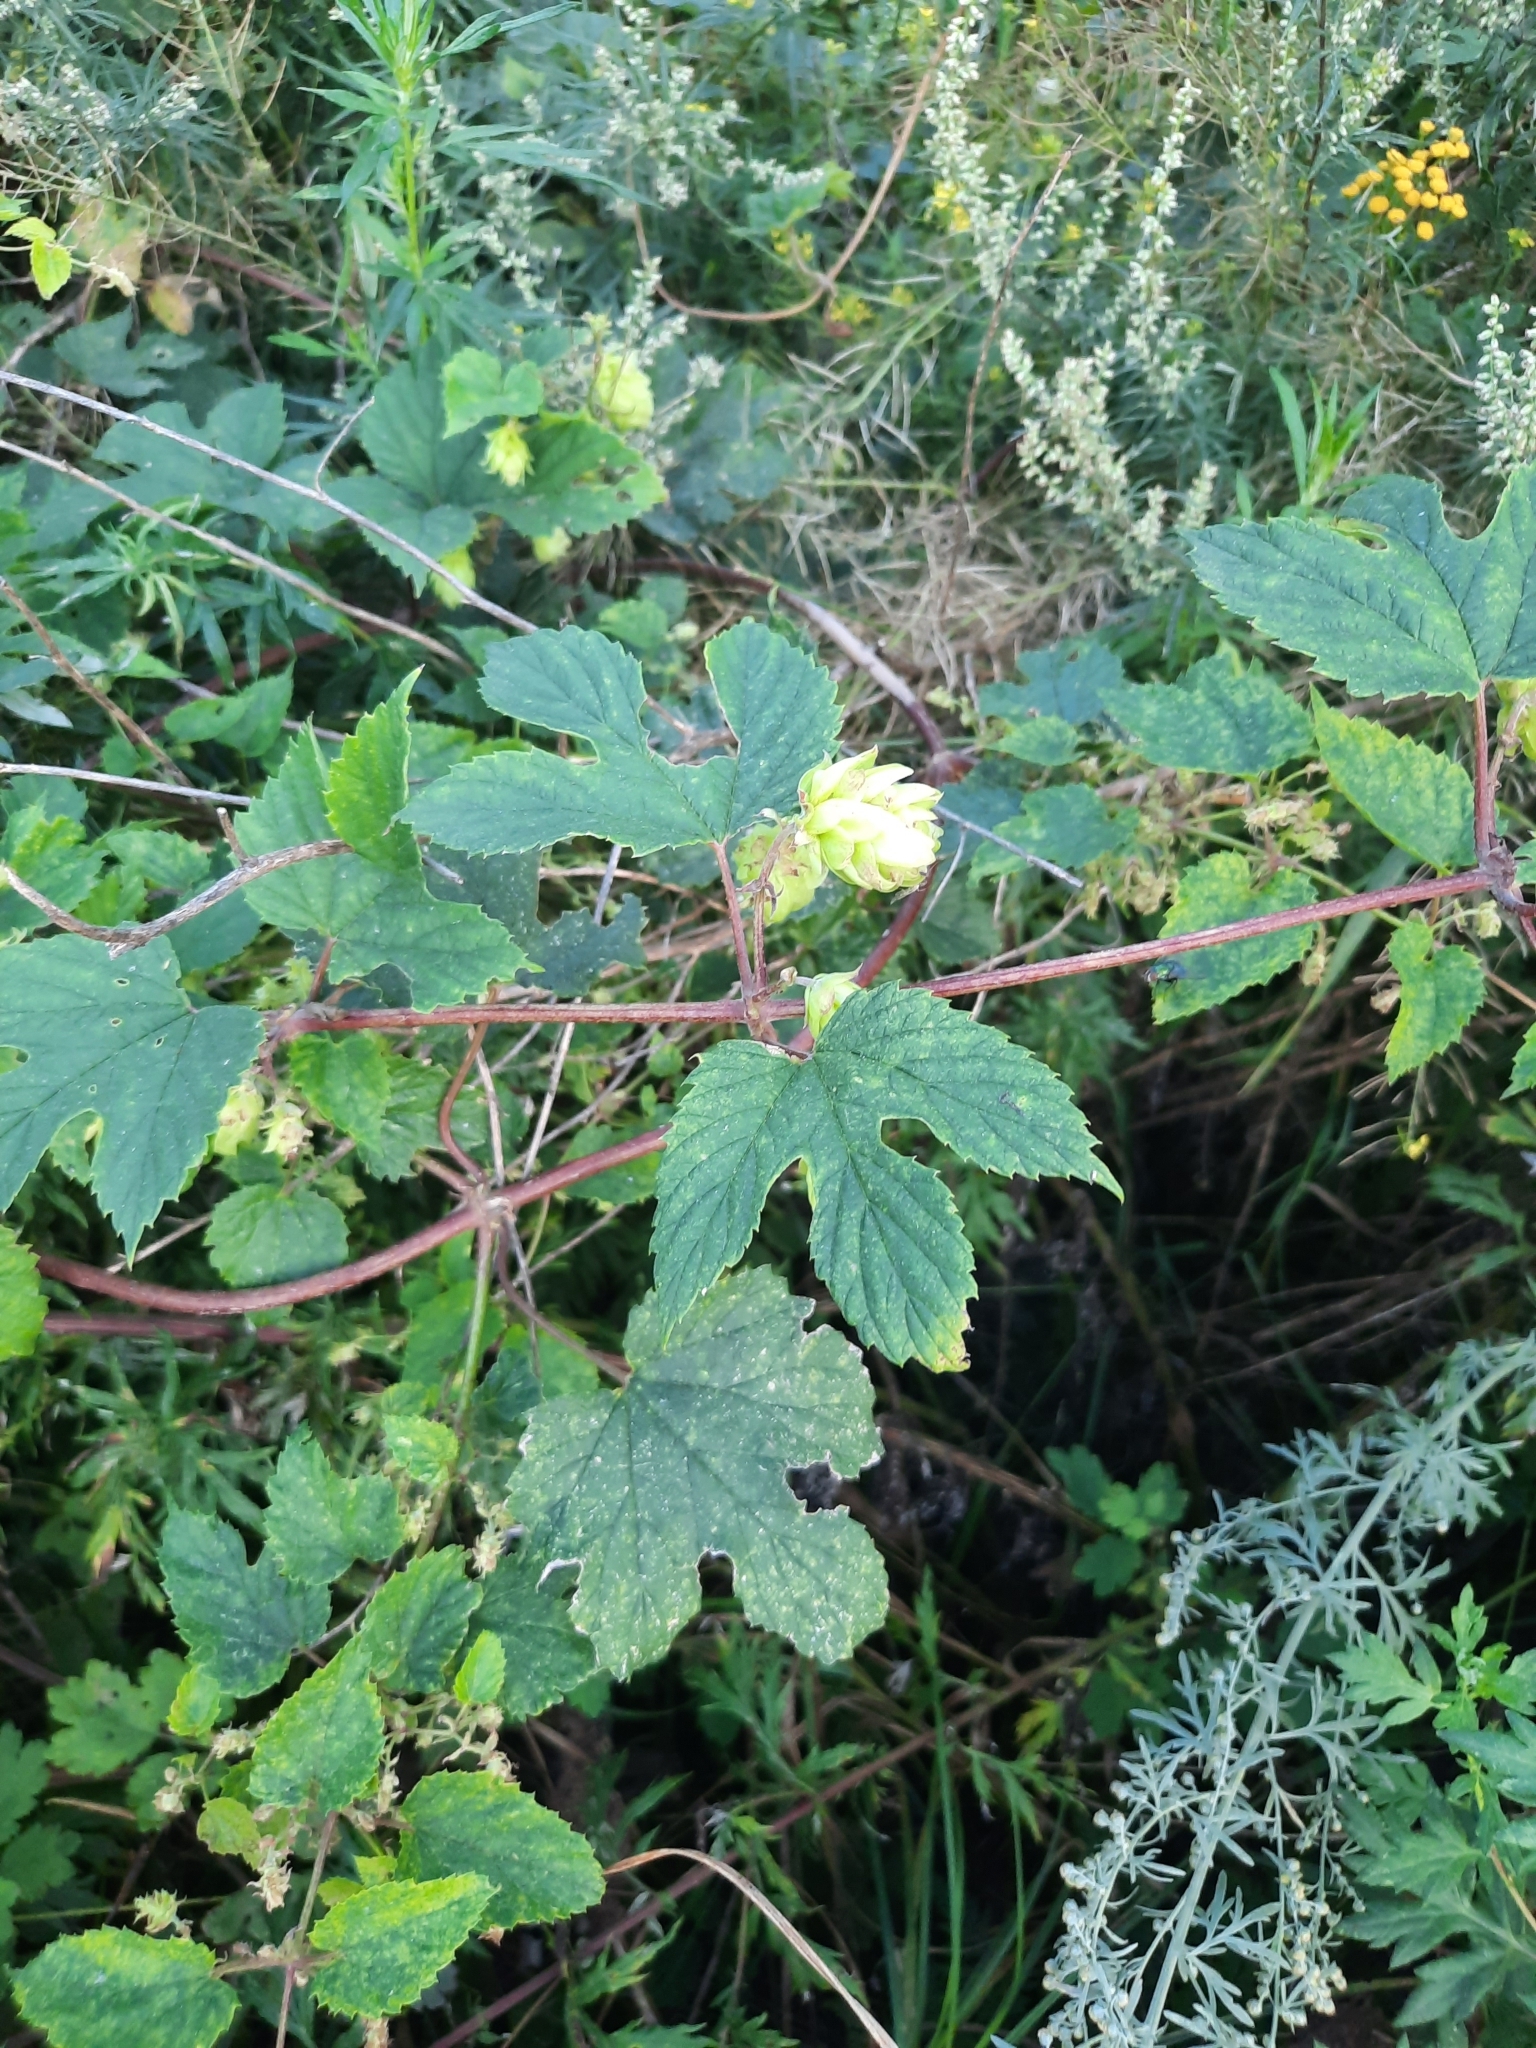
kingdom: Plantae
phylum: Tracheophyta
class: Magnoliopsida
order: Rosales
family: Cannabaceae
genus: Humulus
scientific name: Humulus lupulus
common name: Hop
